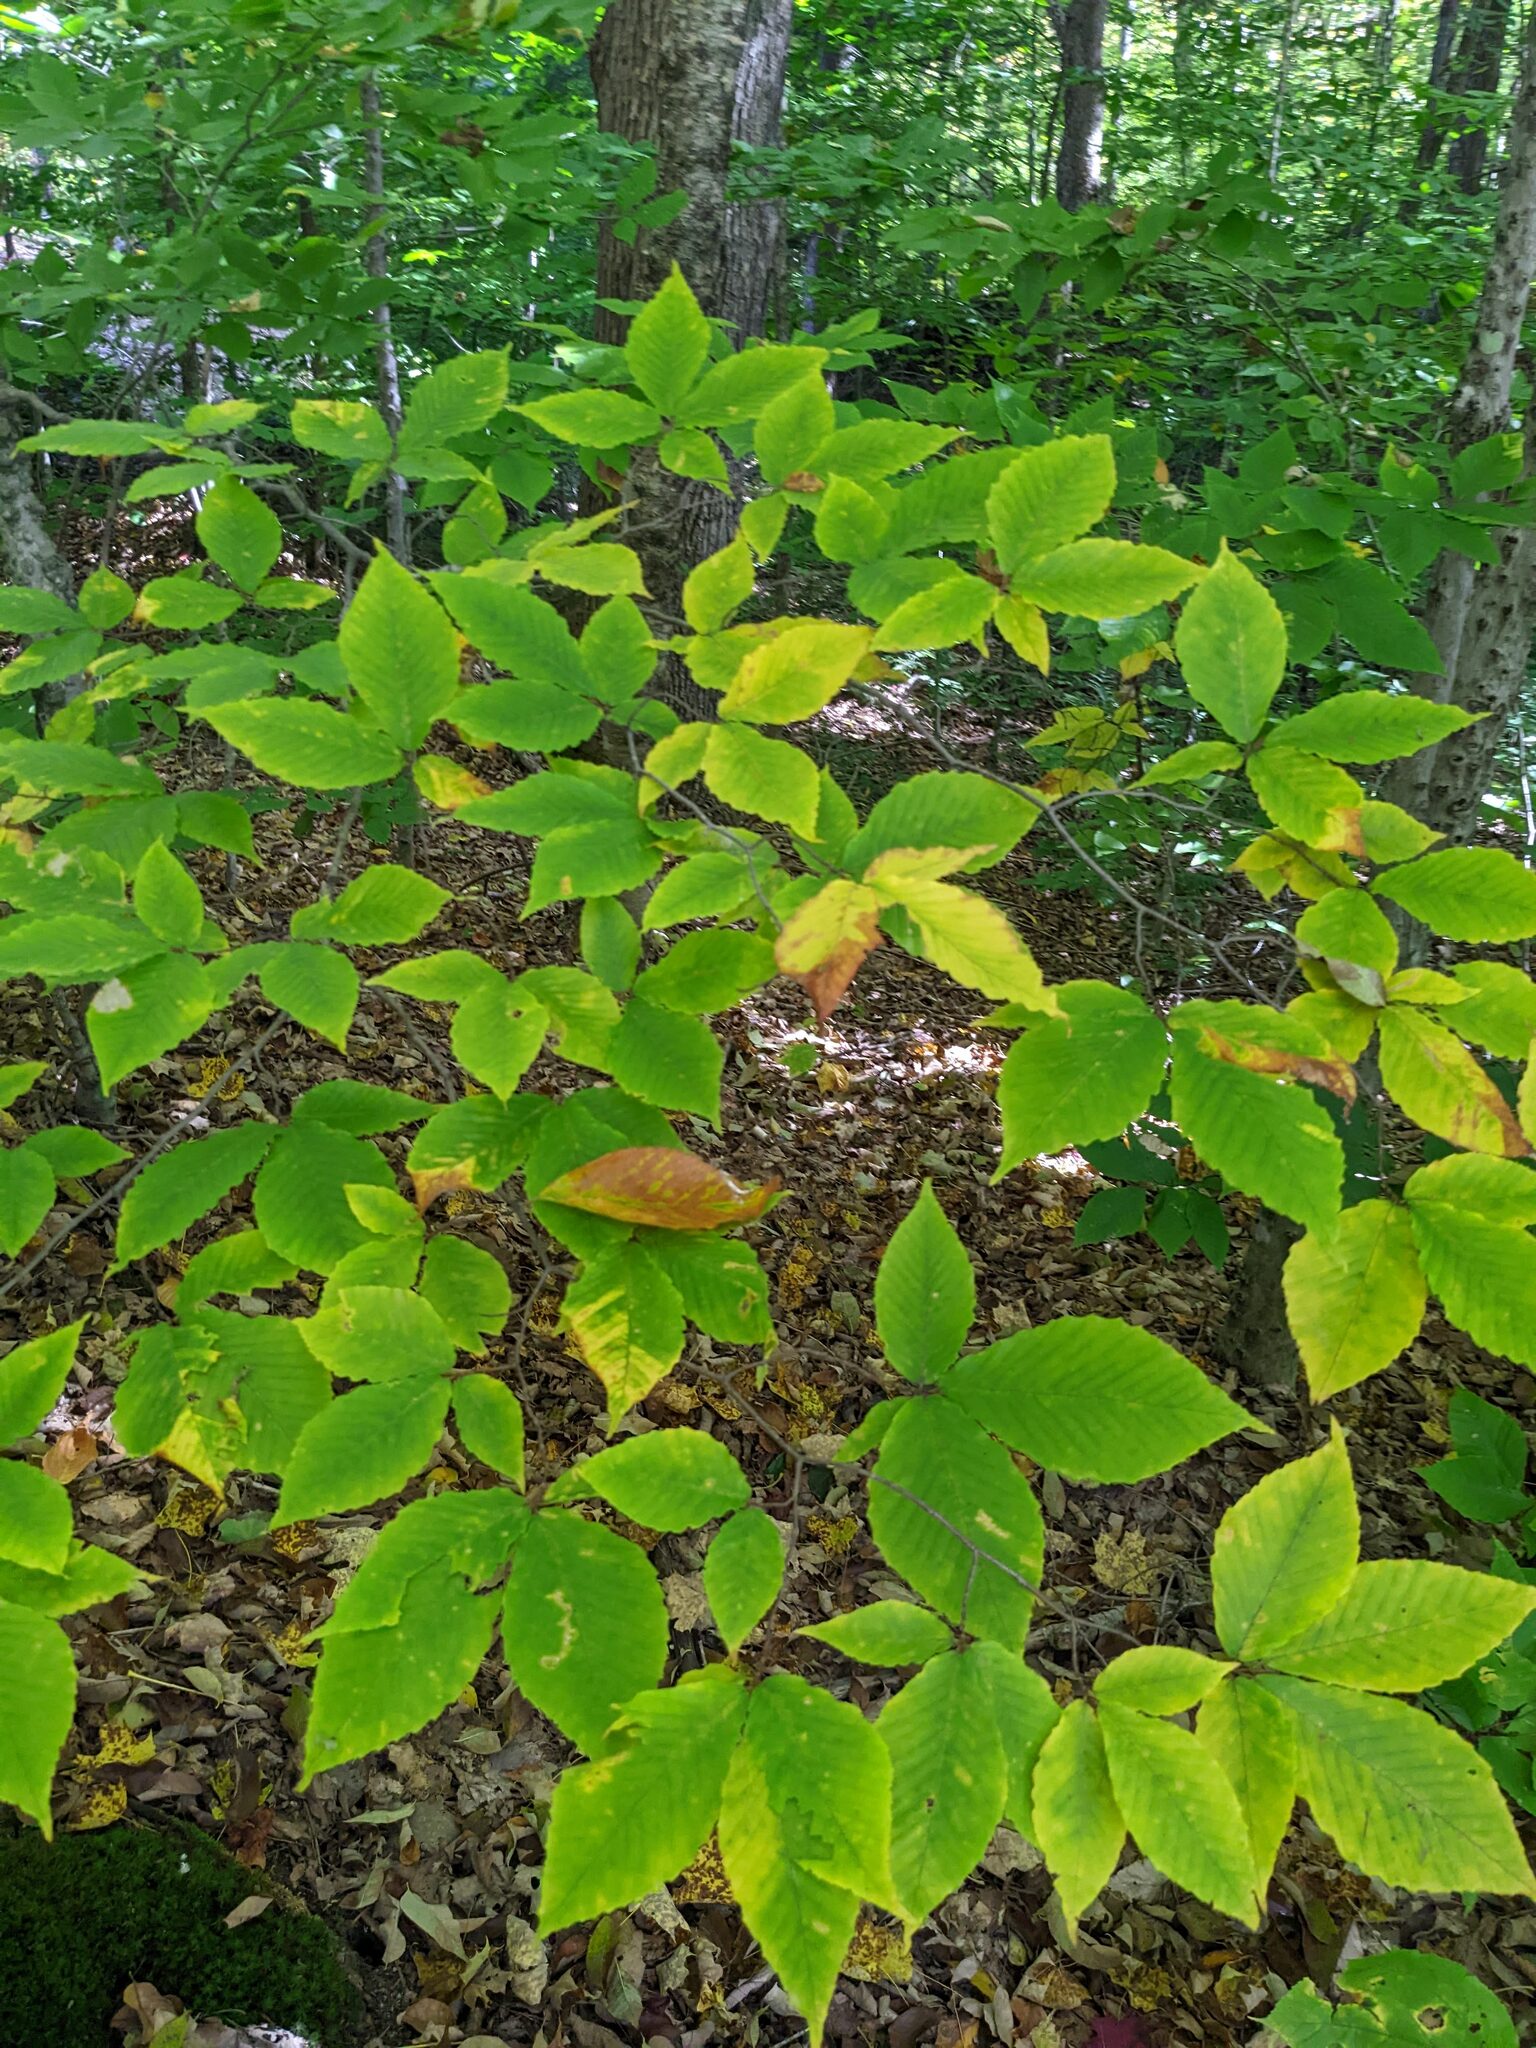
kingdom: Plantae
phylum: Tracheophyta
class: Magnoliopsida
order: Fagales
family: Fagaceae
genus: Fagus
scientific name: Fagus grandifolia
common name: American beech
